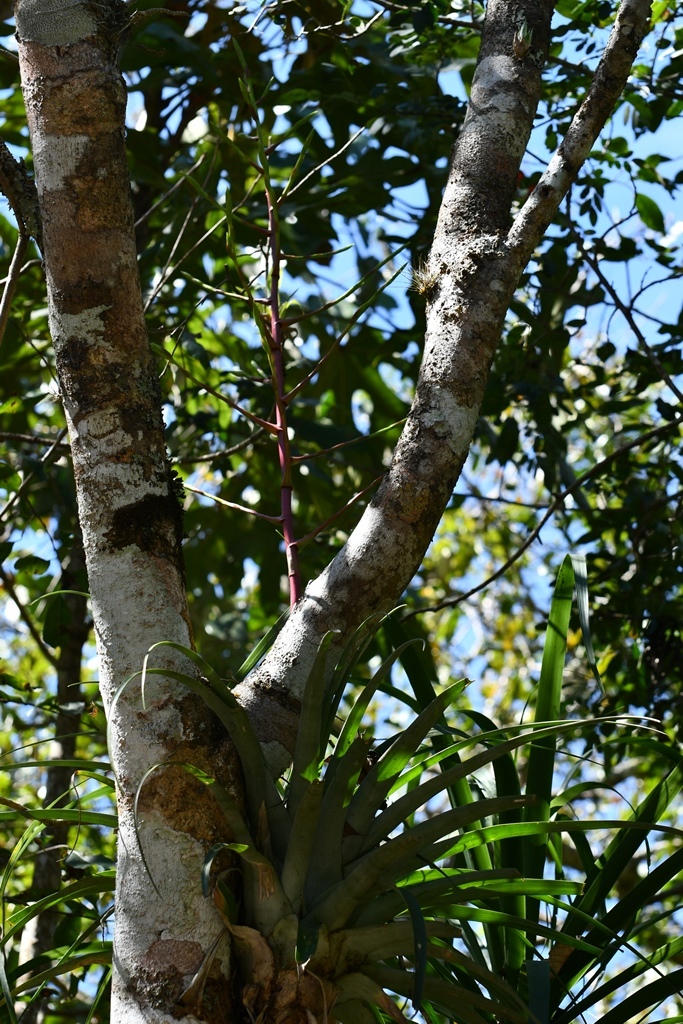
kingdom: Plantae
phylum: Tracheophyta
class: Liliopsida
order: Poales
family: Bromeliaceae
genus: Tillandsia
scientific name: Tillandsia elusiva
